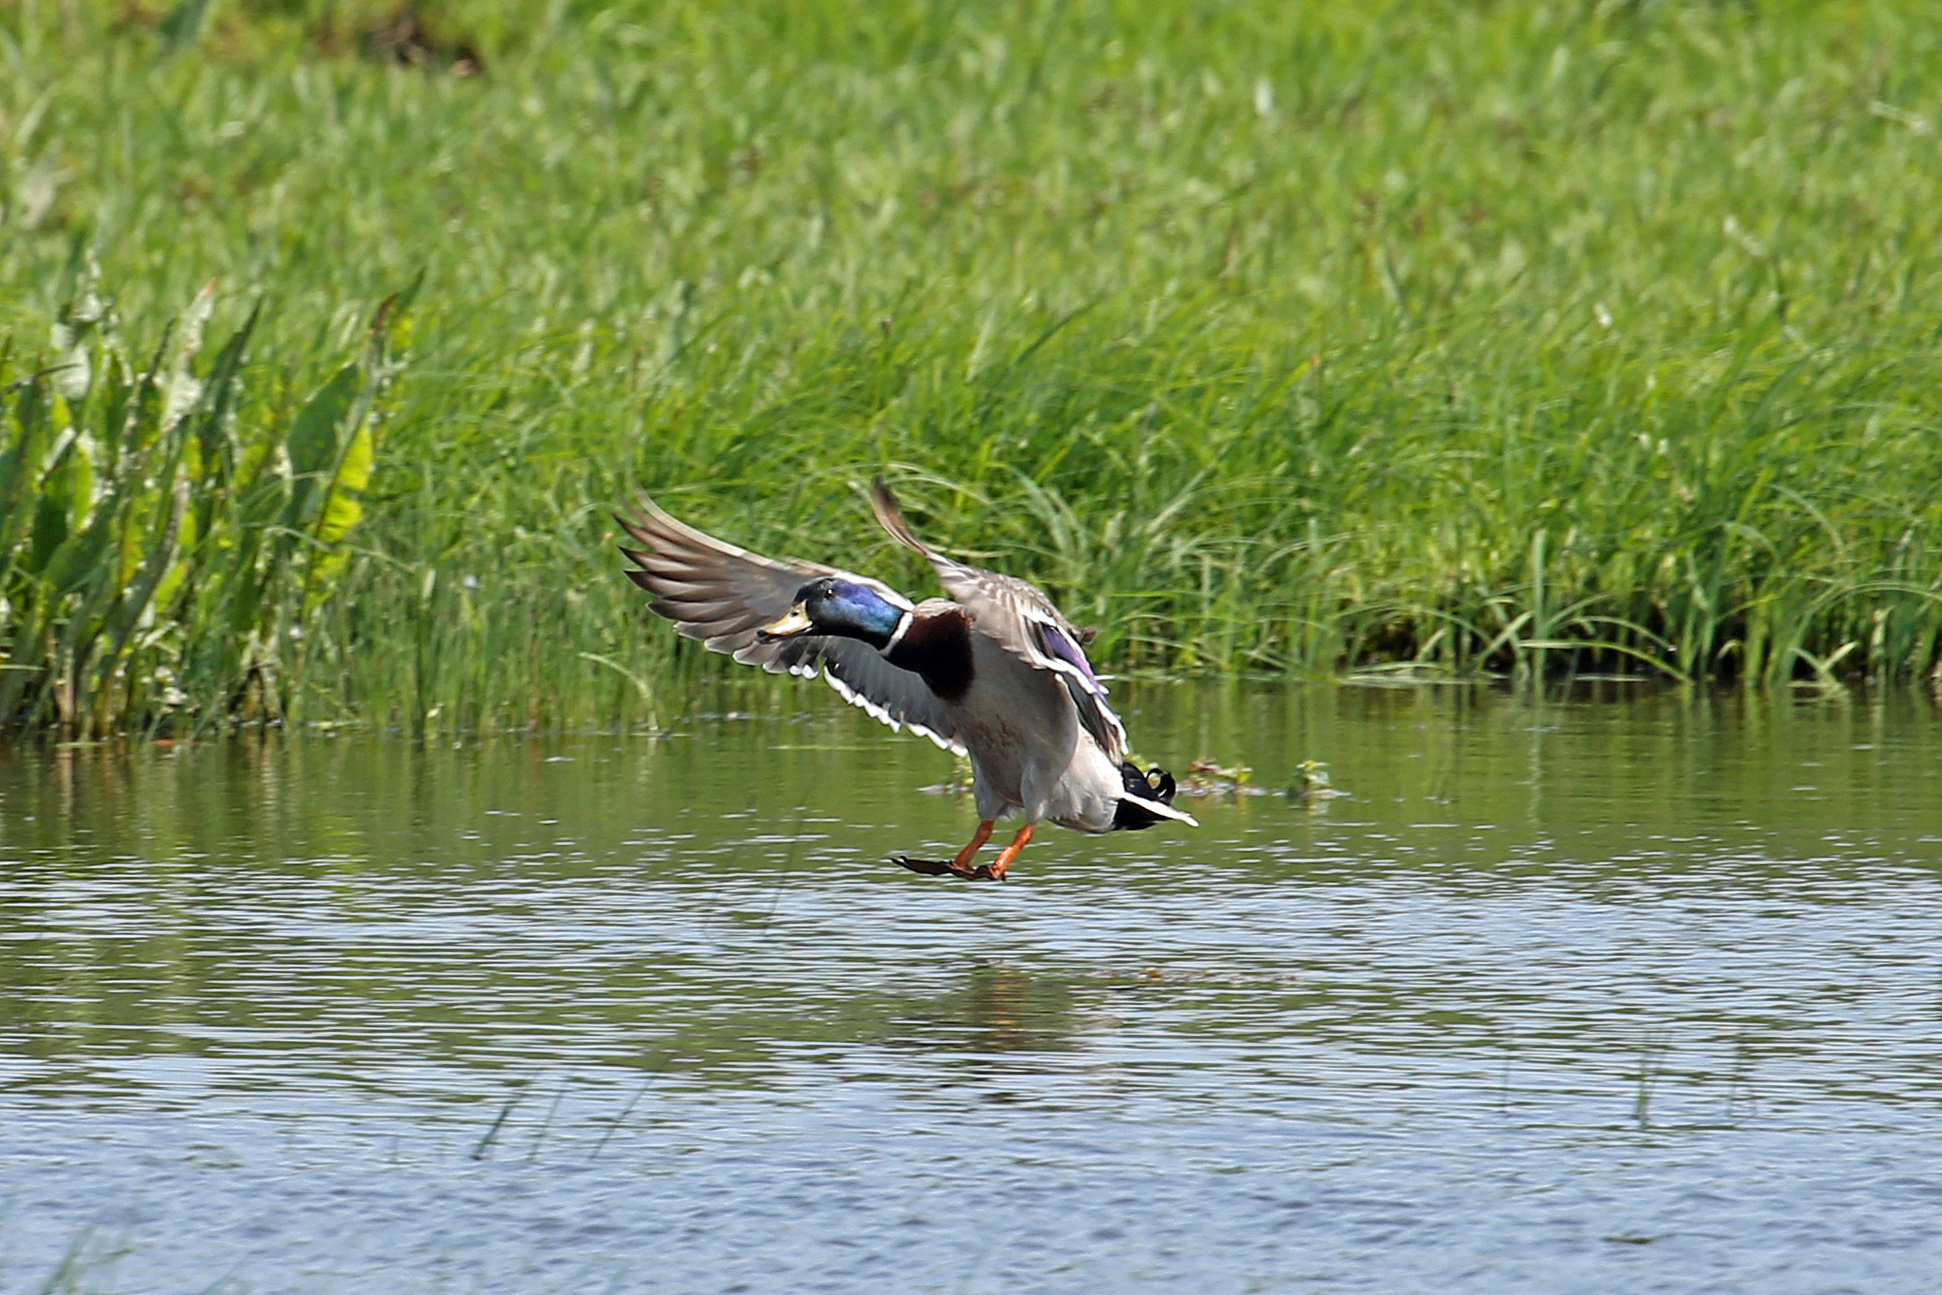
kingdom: Animalia
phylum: Chordata
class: Aves
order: Anseriformes
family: Anatidae
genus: Anas
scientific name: Anas platyrhynchos
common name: Mallard
